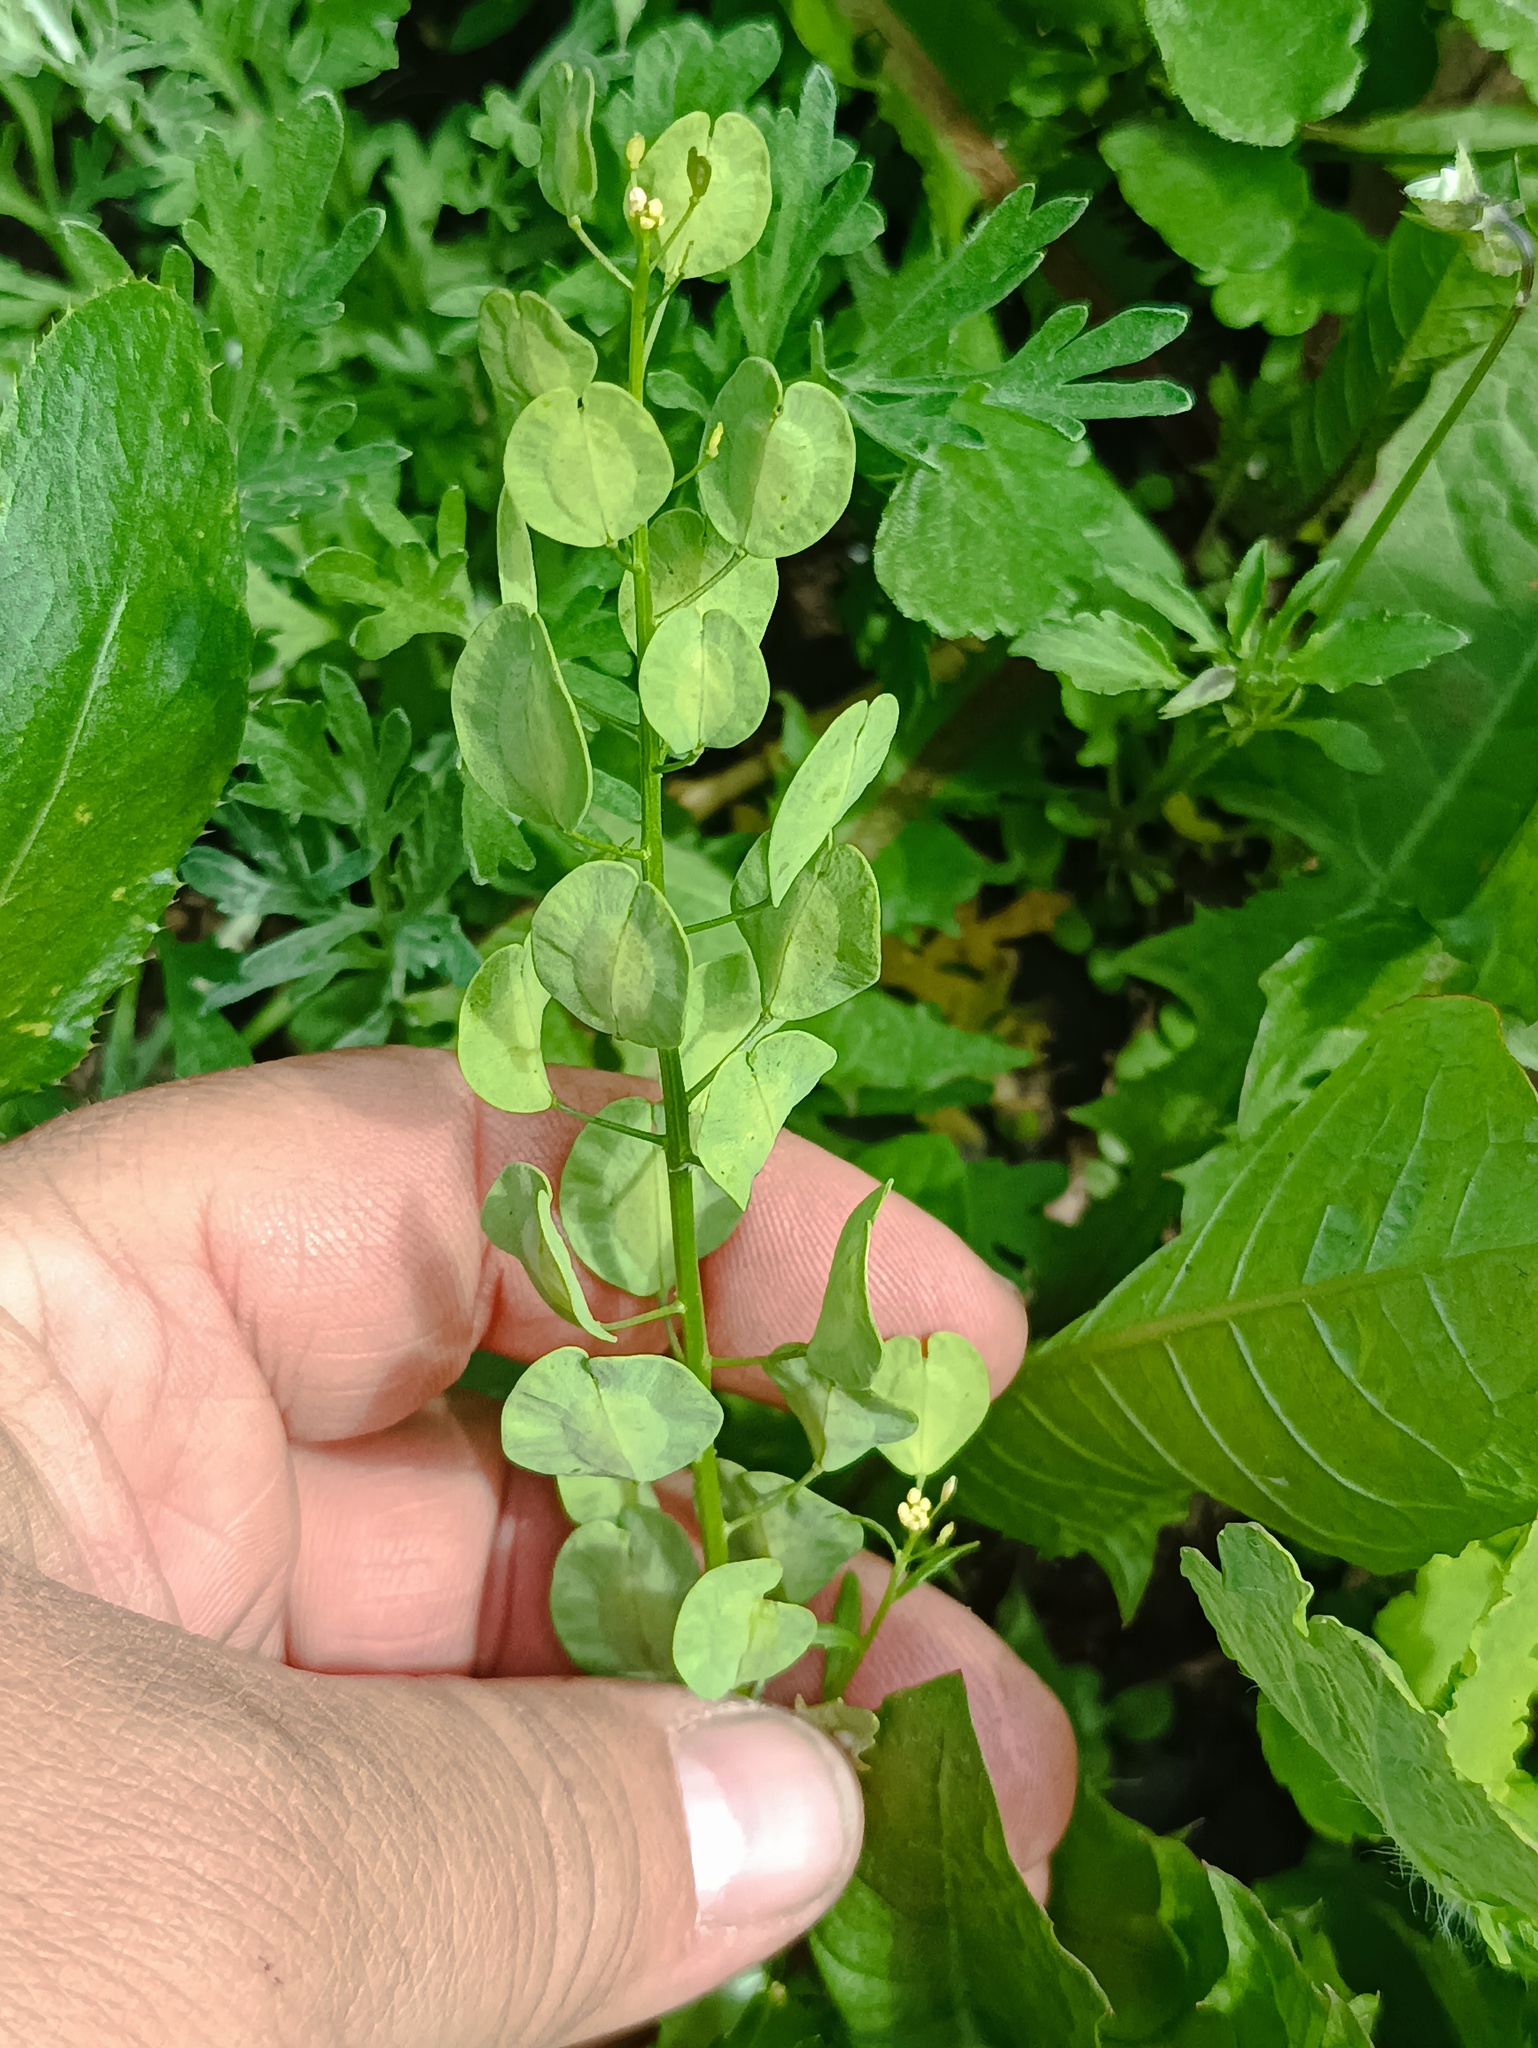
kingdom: Plantae
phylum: Tracheophyta
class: Magnoliopsida
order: Brassicales
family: Brassicaceae
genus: Thlaspi
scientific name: Thlaspi arvense
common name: Field pennycress
